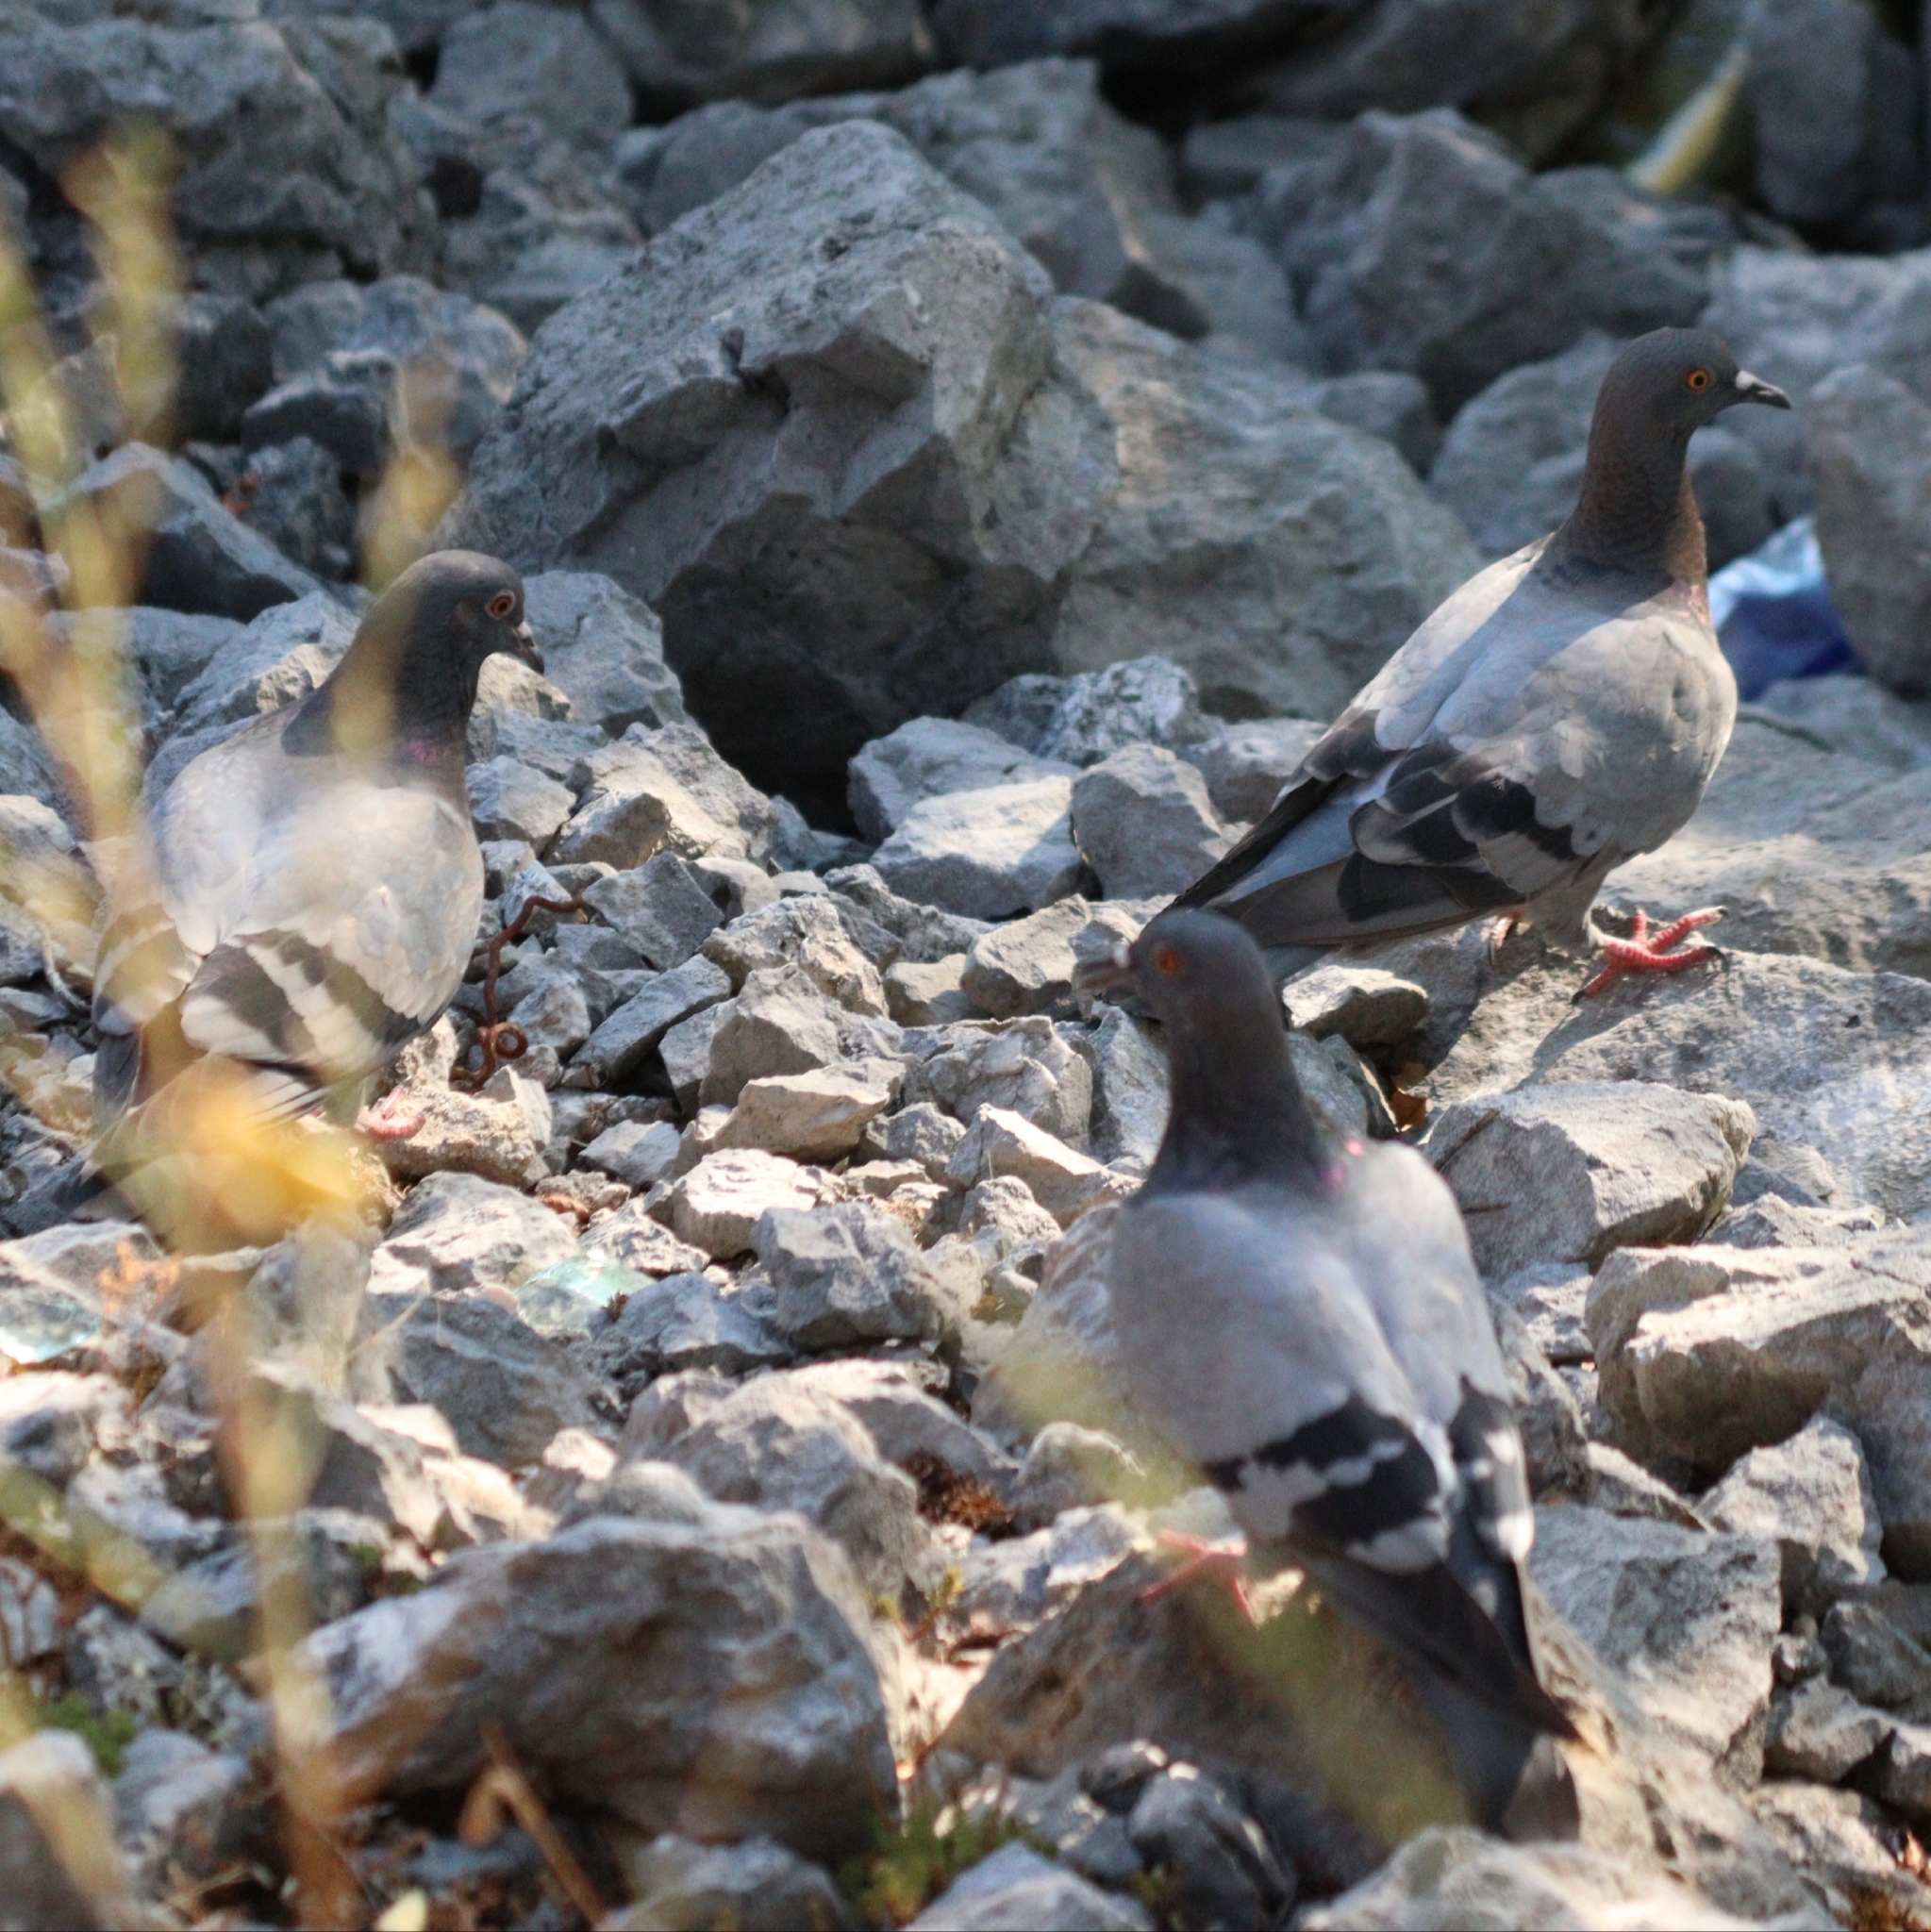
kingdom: Animalia
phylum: Chordata
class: Aves
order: Columbiformes
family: Columbidae
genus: Columba
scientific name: Columba livia
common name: Rock pigeon
